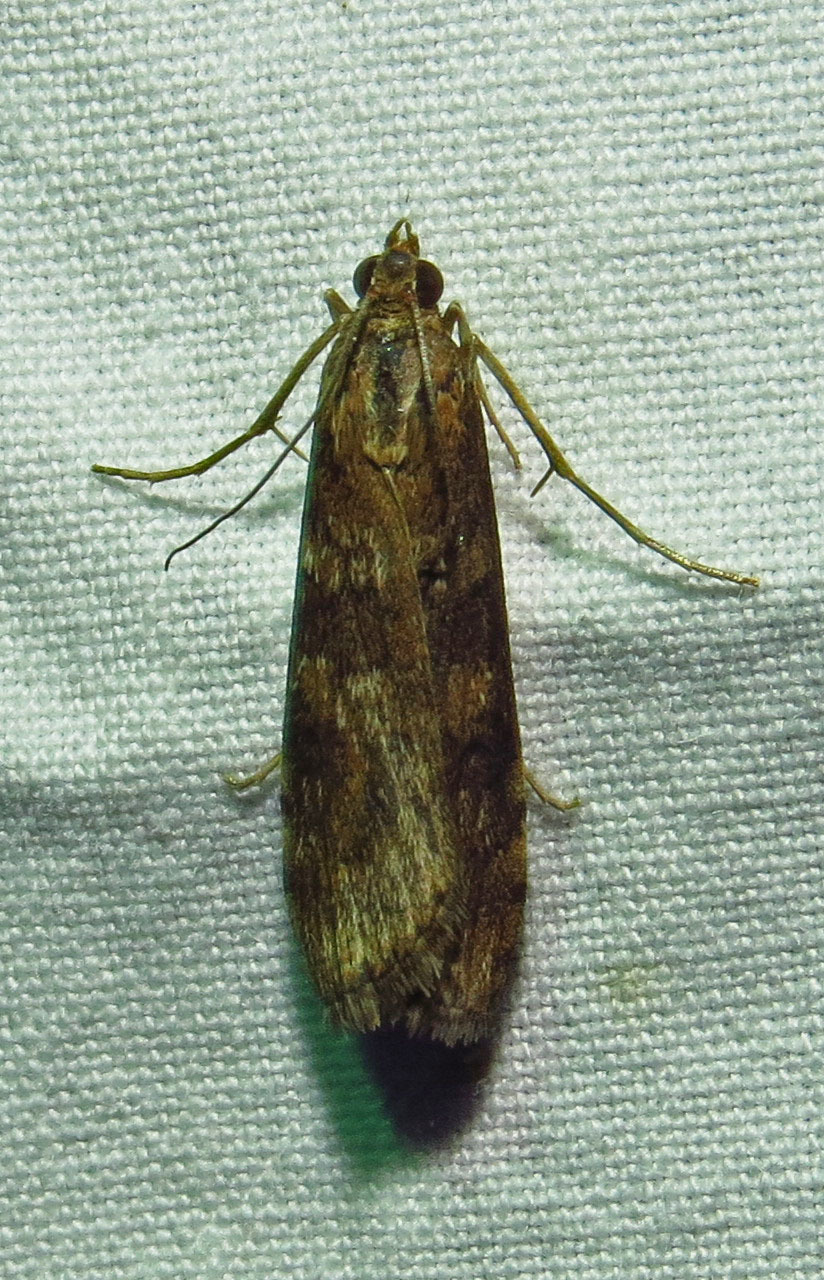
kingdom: Animalia
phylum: Arthropoda
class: Insecta
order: Lepidoptera
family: Crambidae
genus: Nomophila
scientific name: Nomophila nearctica
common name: American rush veneer
